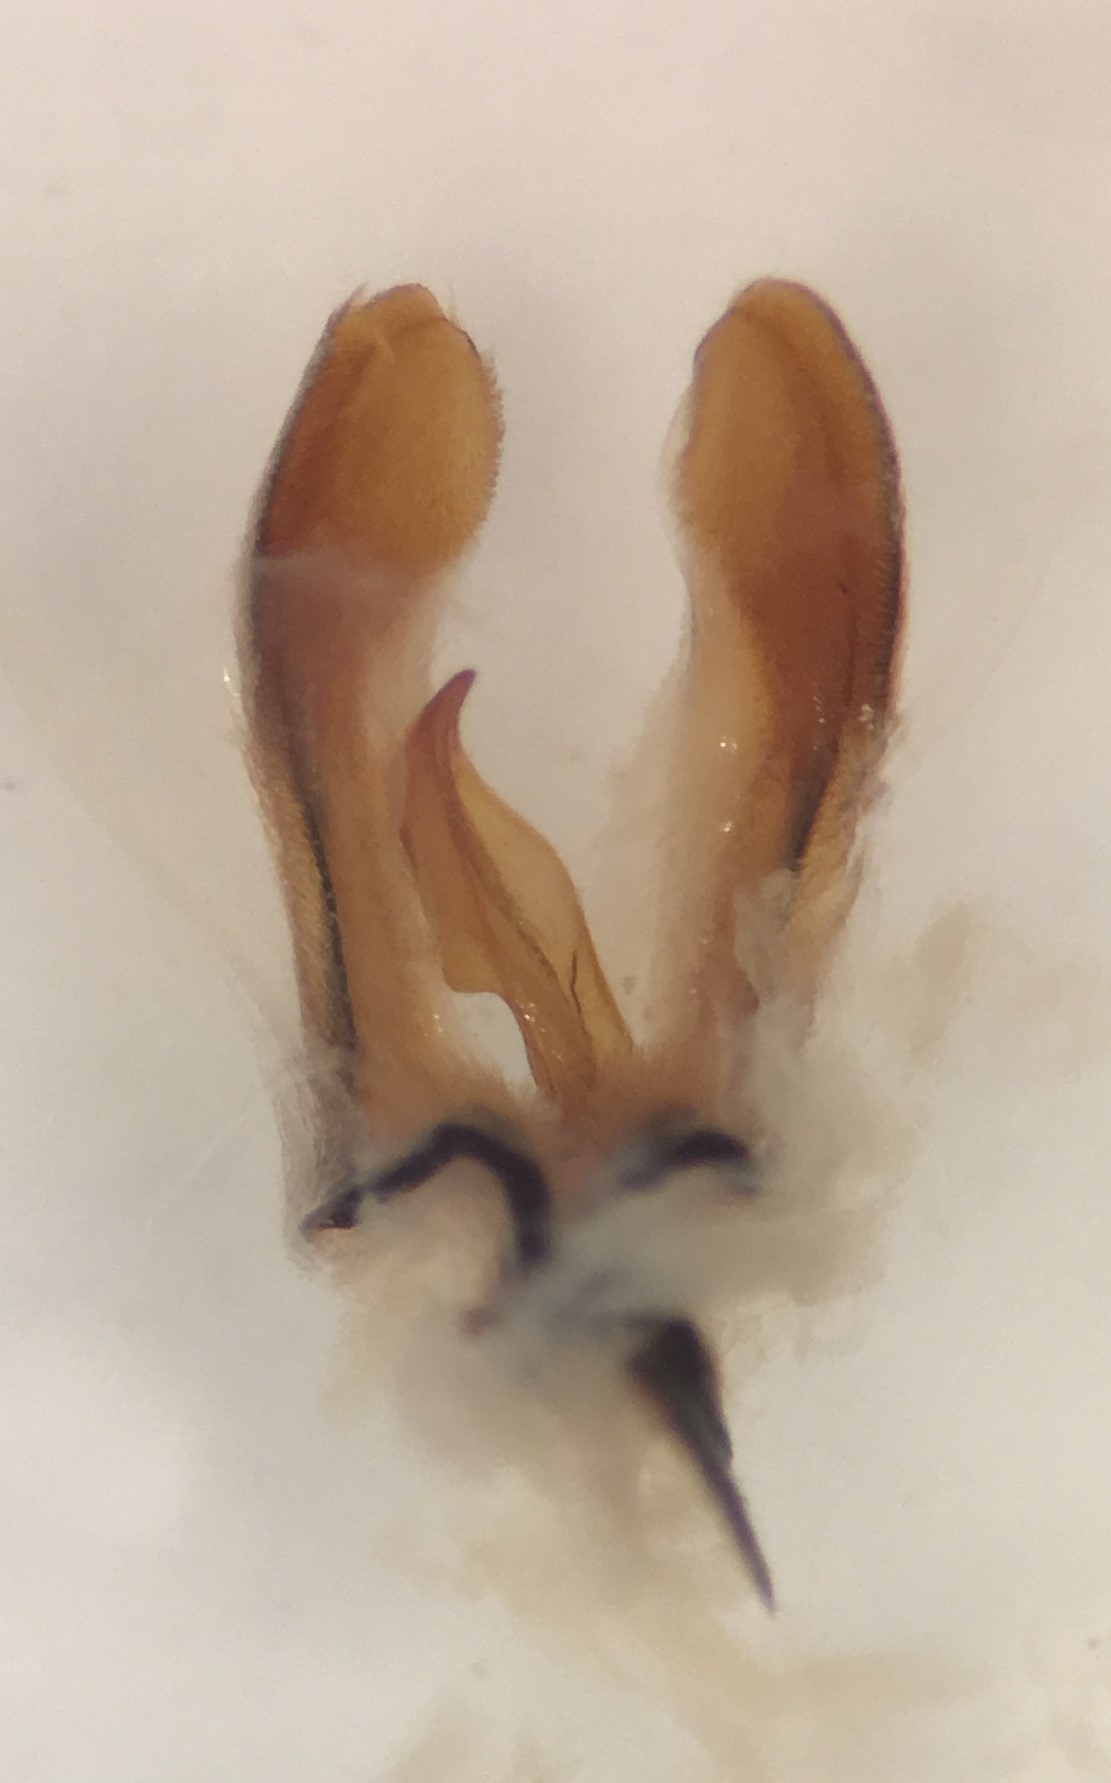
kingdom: Animalia
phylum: Arthropoda
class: Insecta
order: Coleoptera
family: Dytiscidae
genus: Agabus
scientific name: Agabus punctatus
